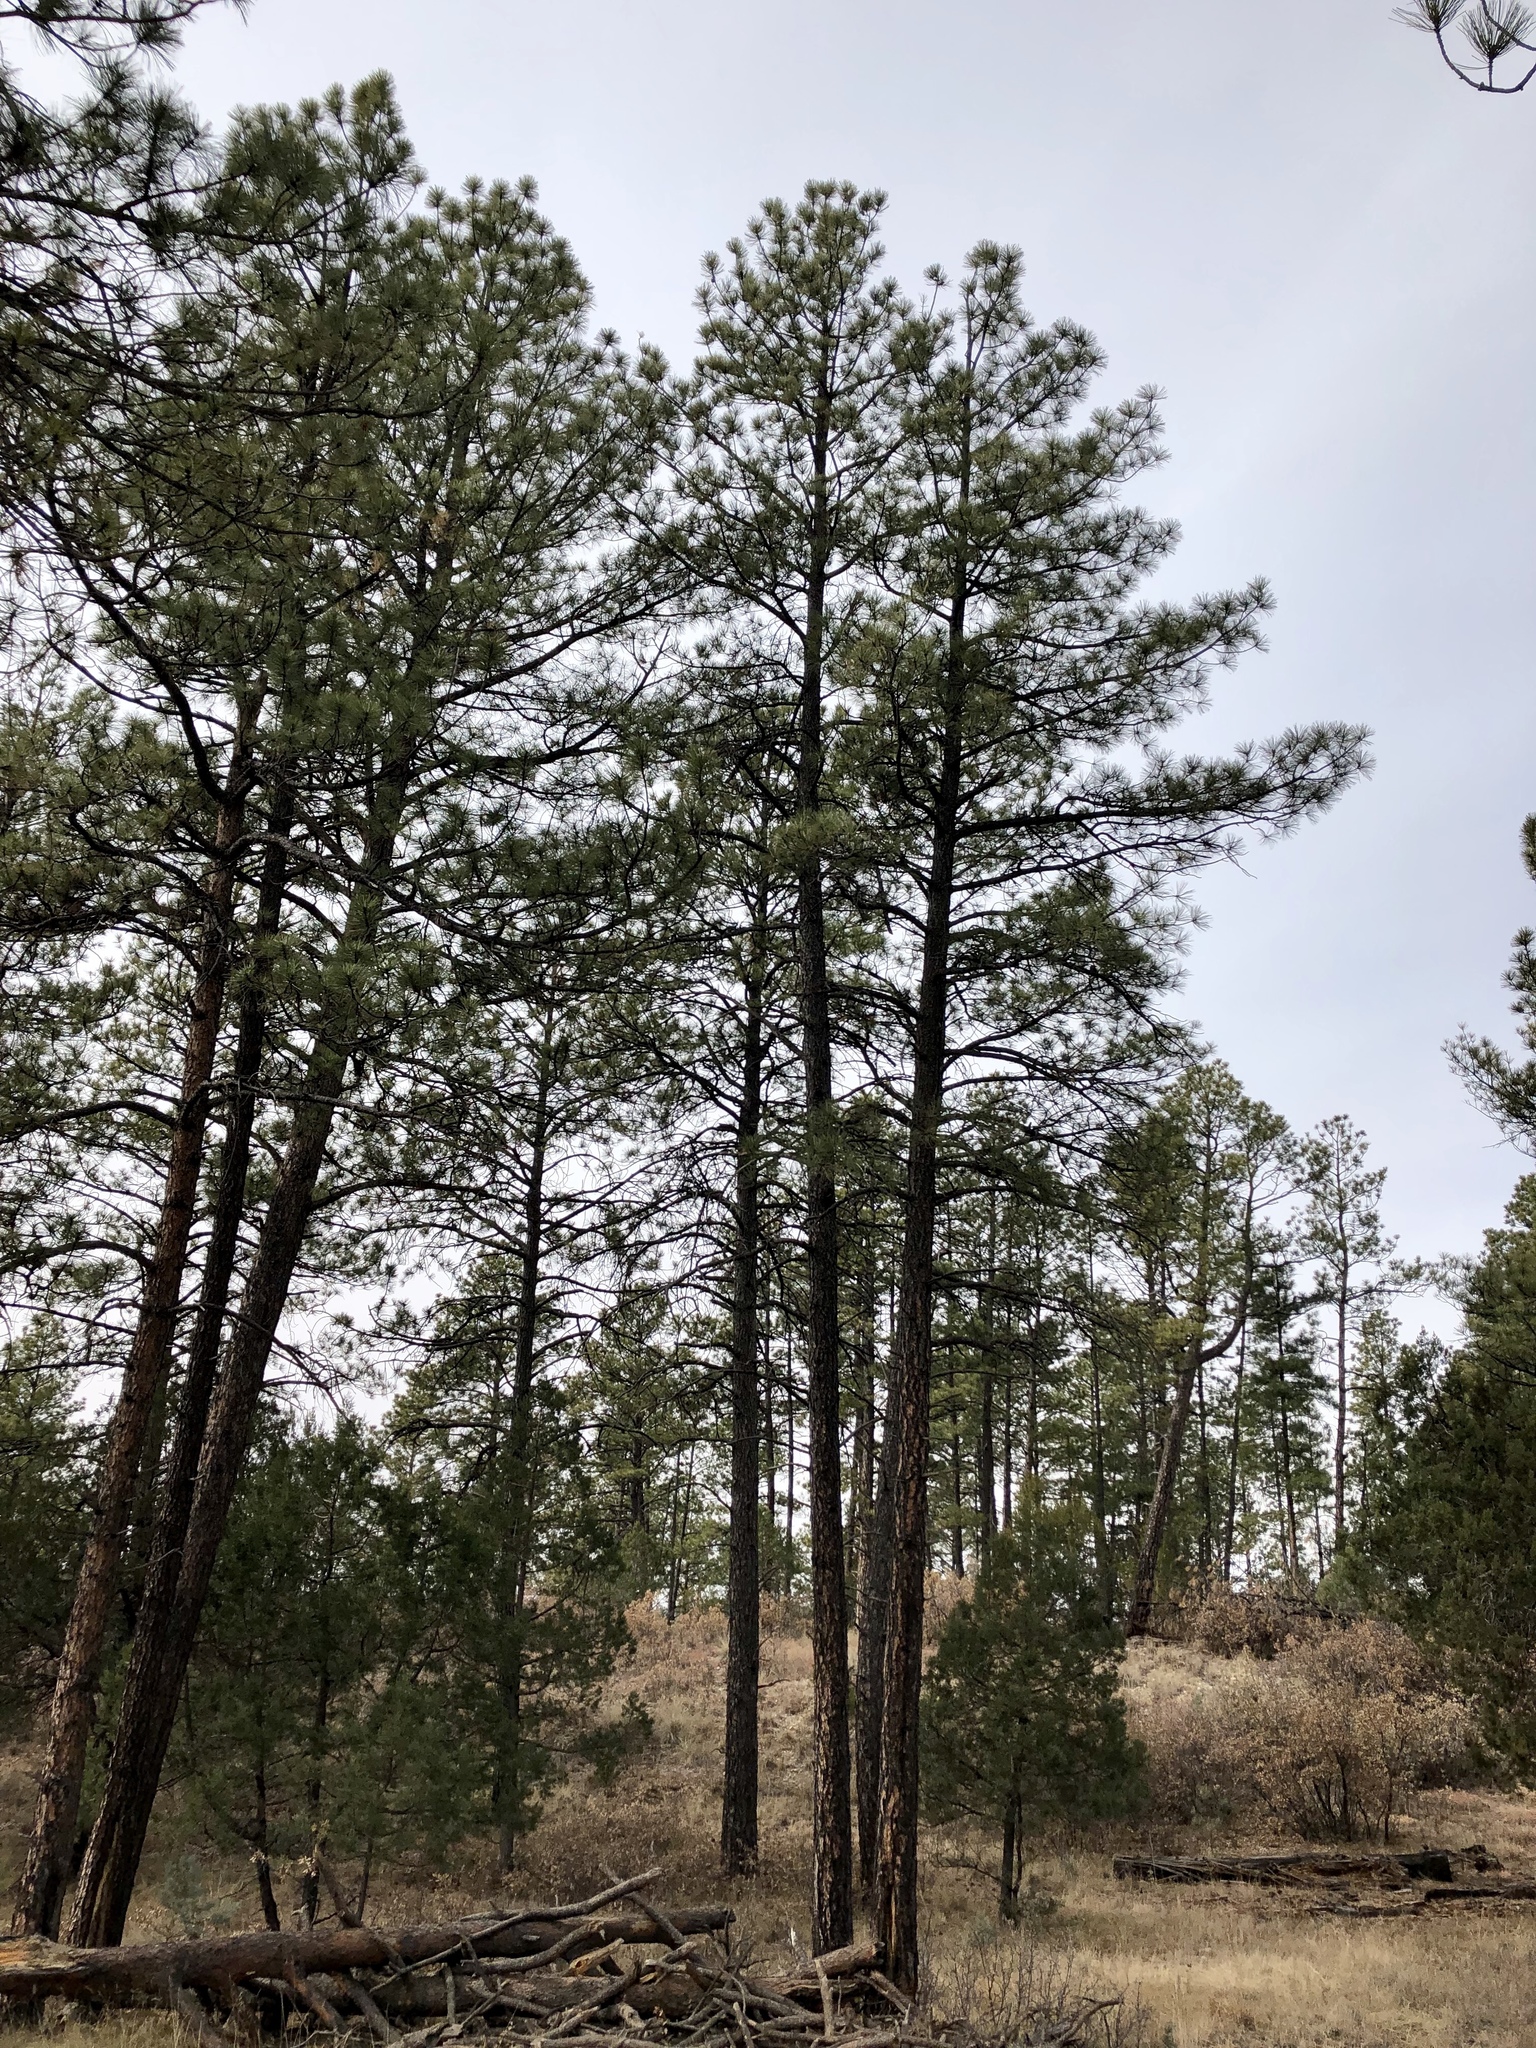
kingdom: Plantae
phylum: Tracheophyta
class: Pinopsida
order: Pinales
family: Pinaceae
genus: Pinus
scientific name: Pinus ponderosa
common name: Western yellow-pine
